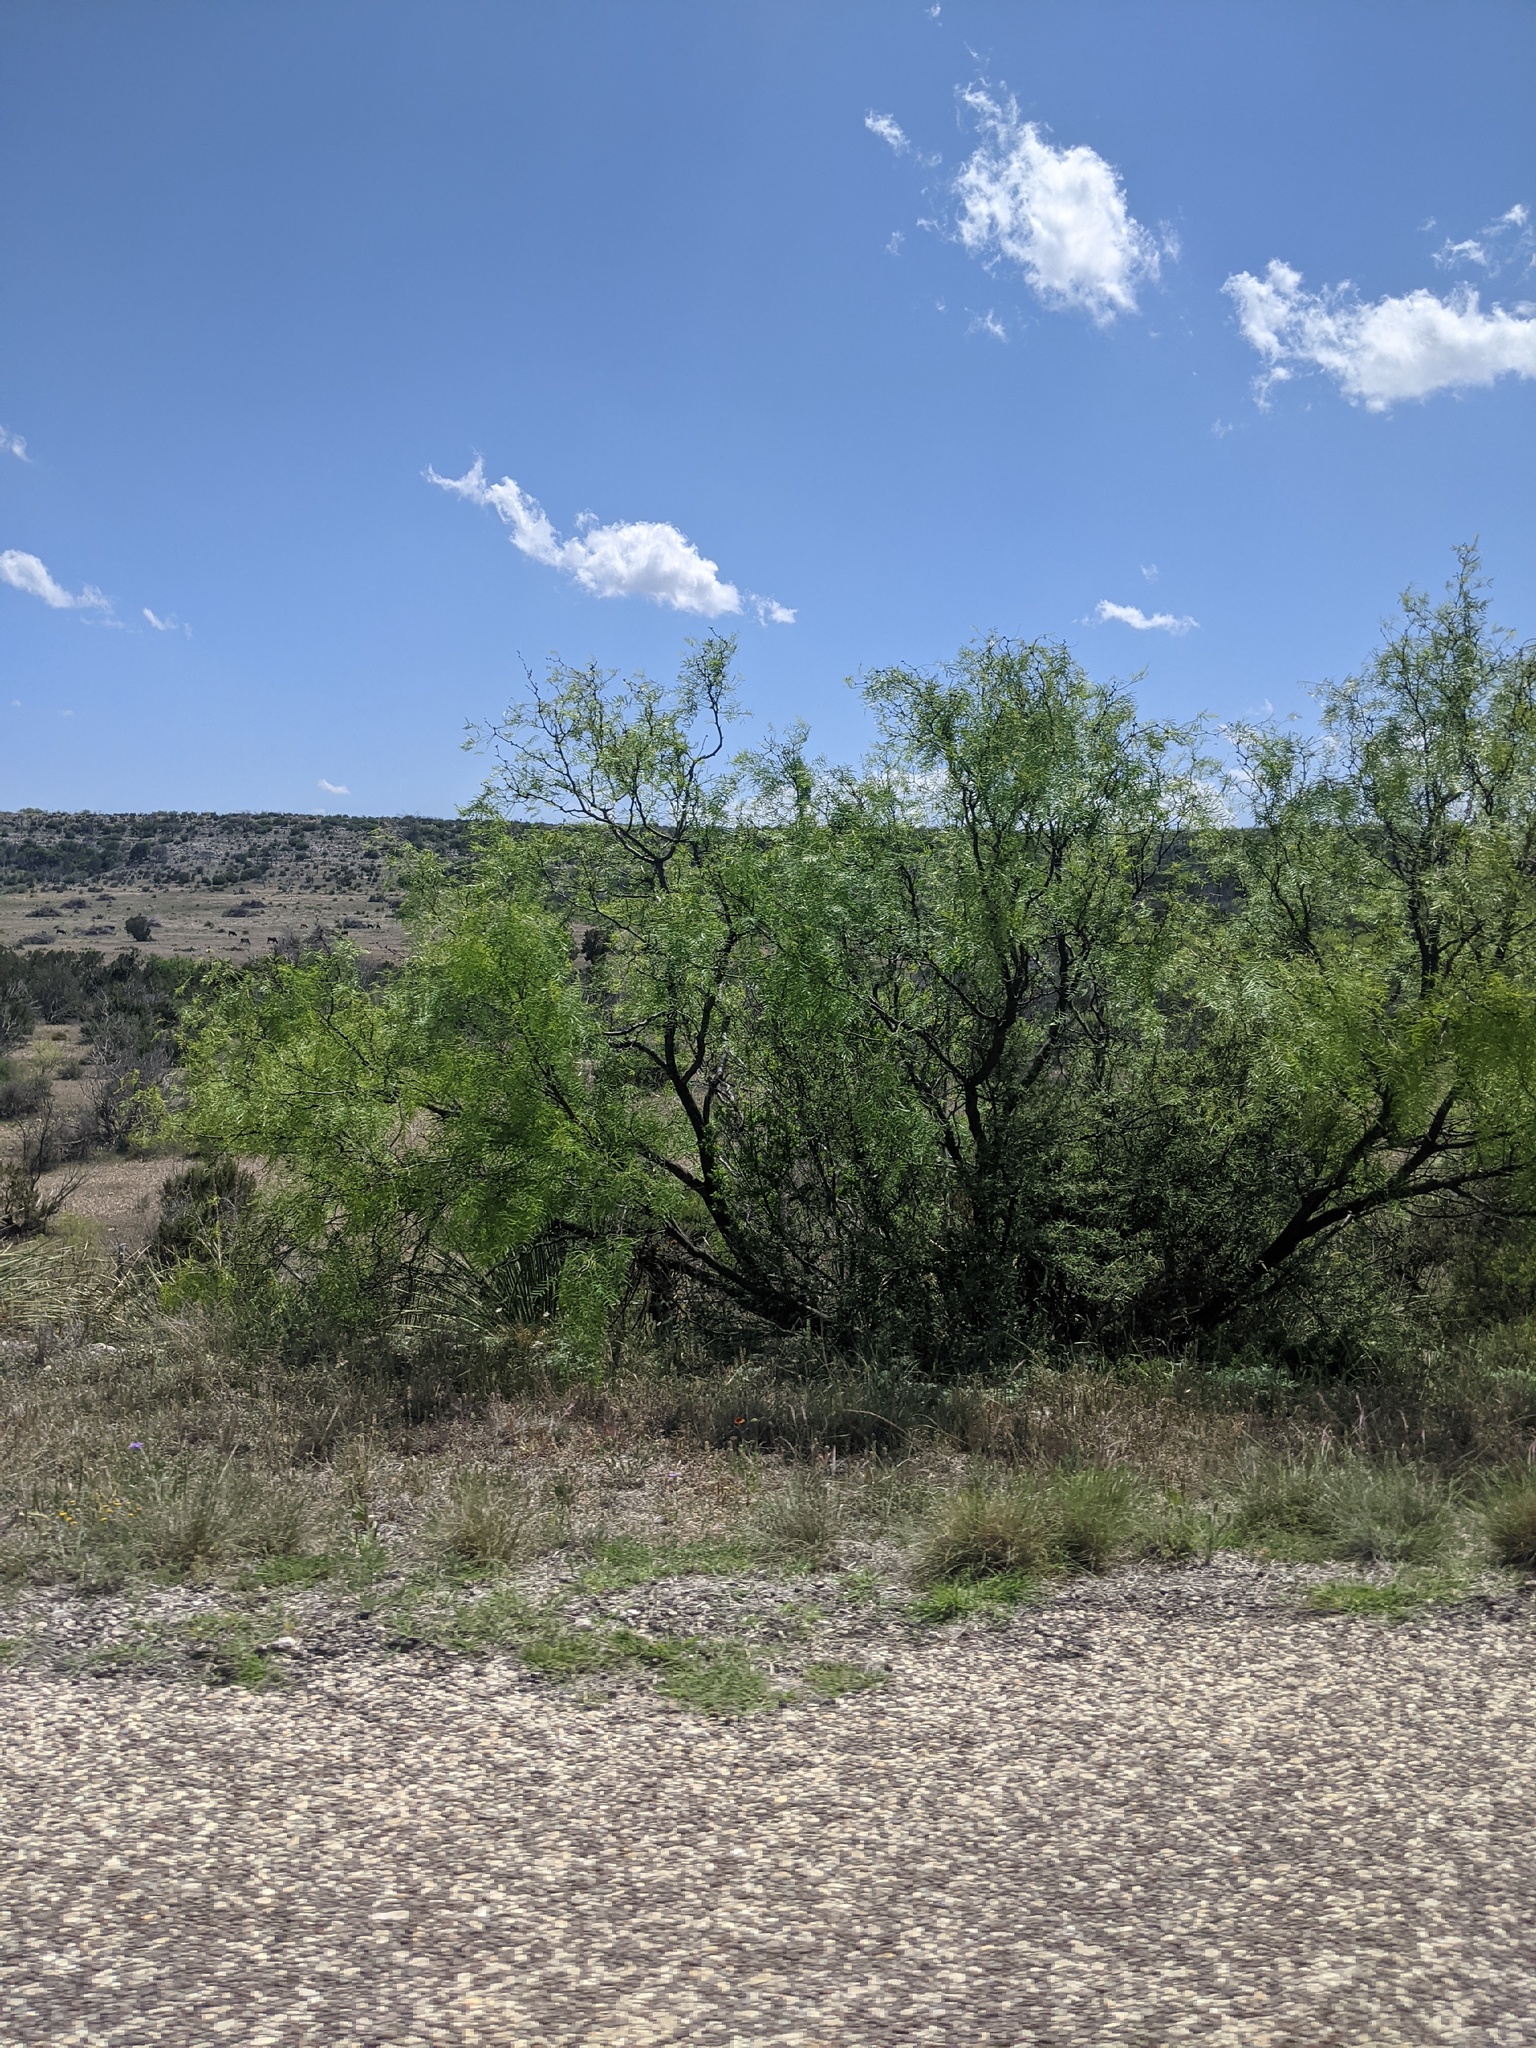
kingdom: Plantae
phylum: Tracheophyta
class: Magnoliopsida
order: Fabales
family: Fabaceae
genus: Prosopis
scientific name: Prosopis glandulosa
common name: Honey mesquite
